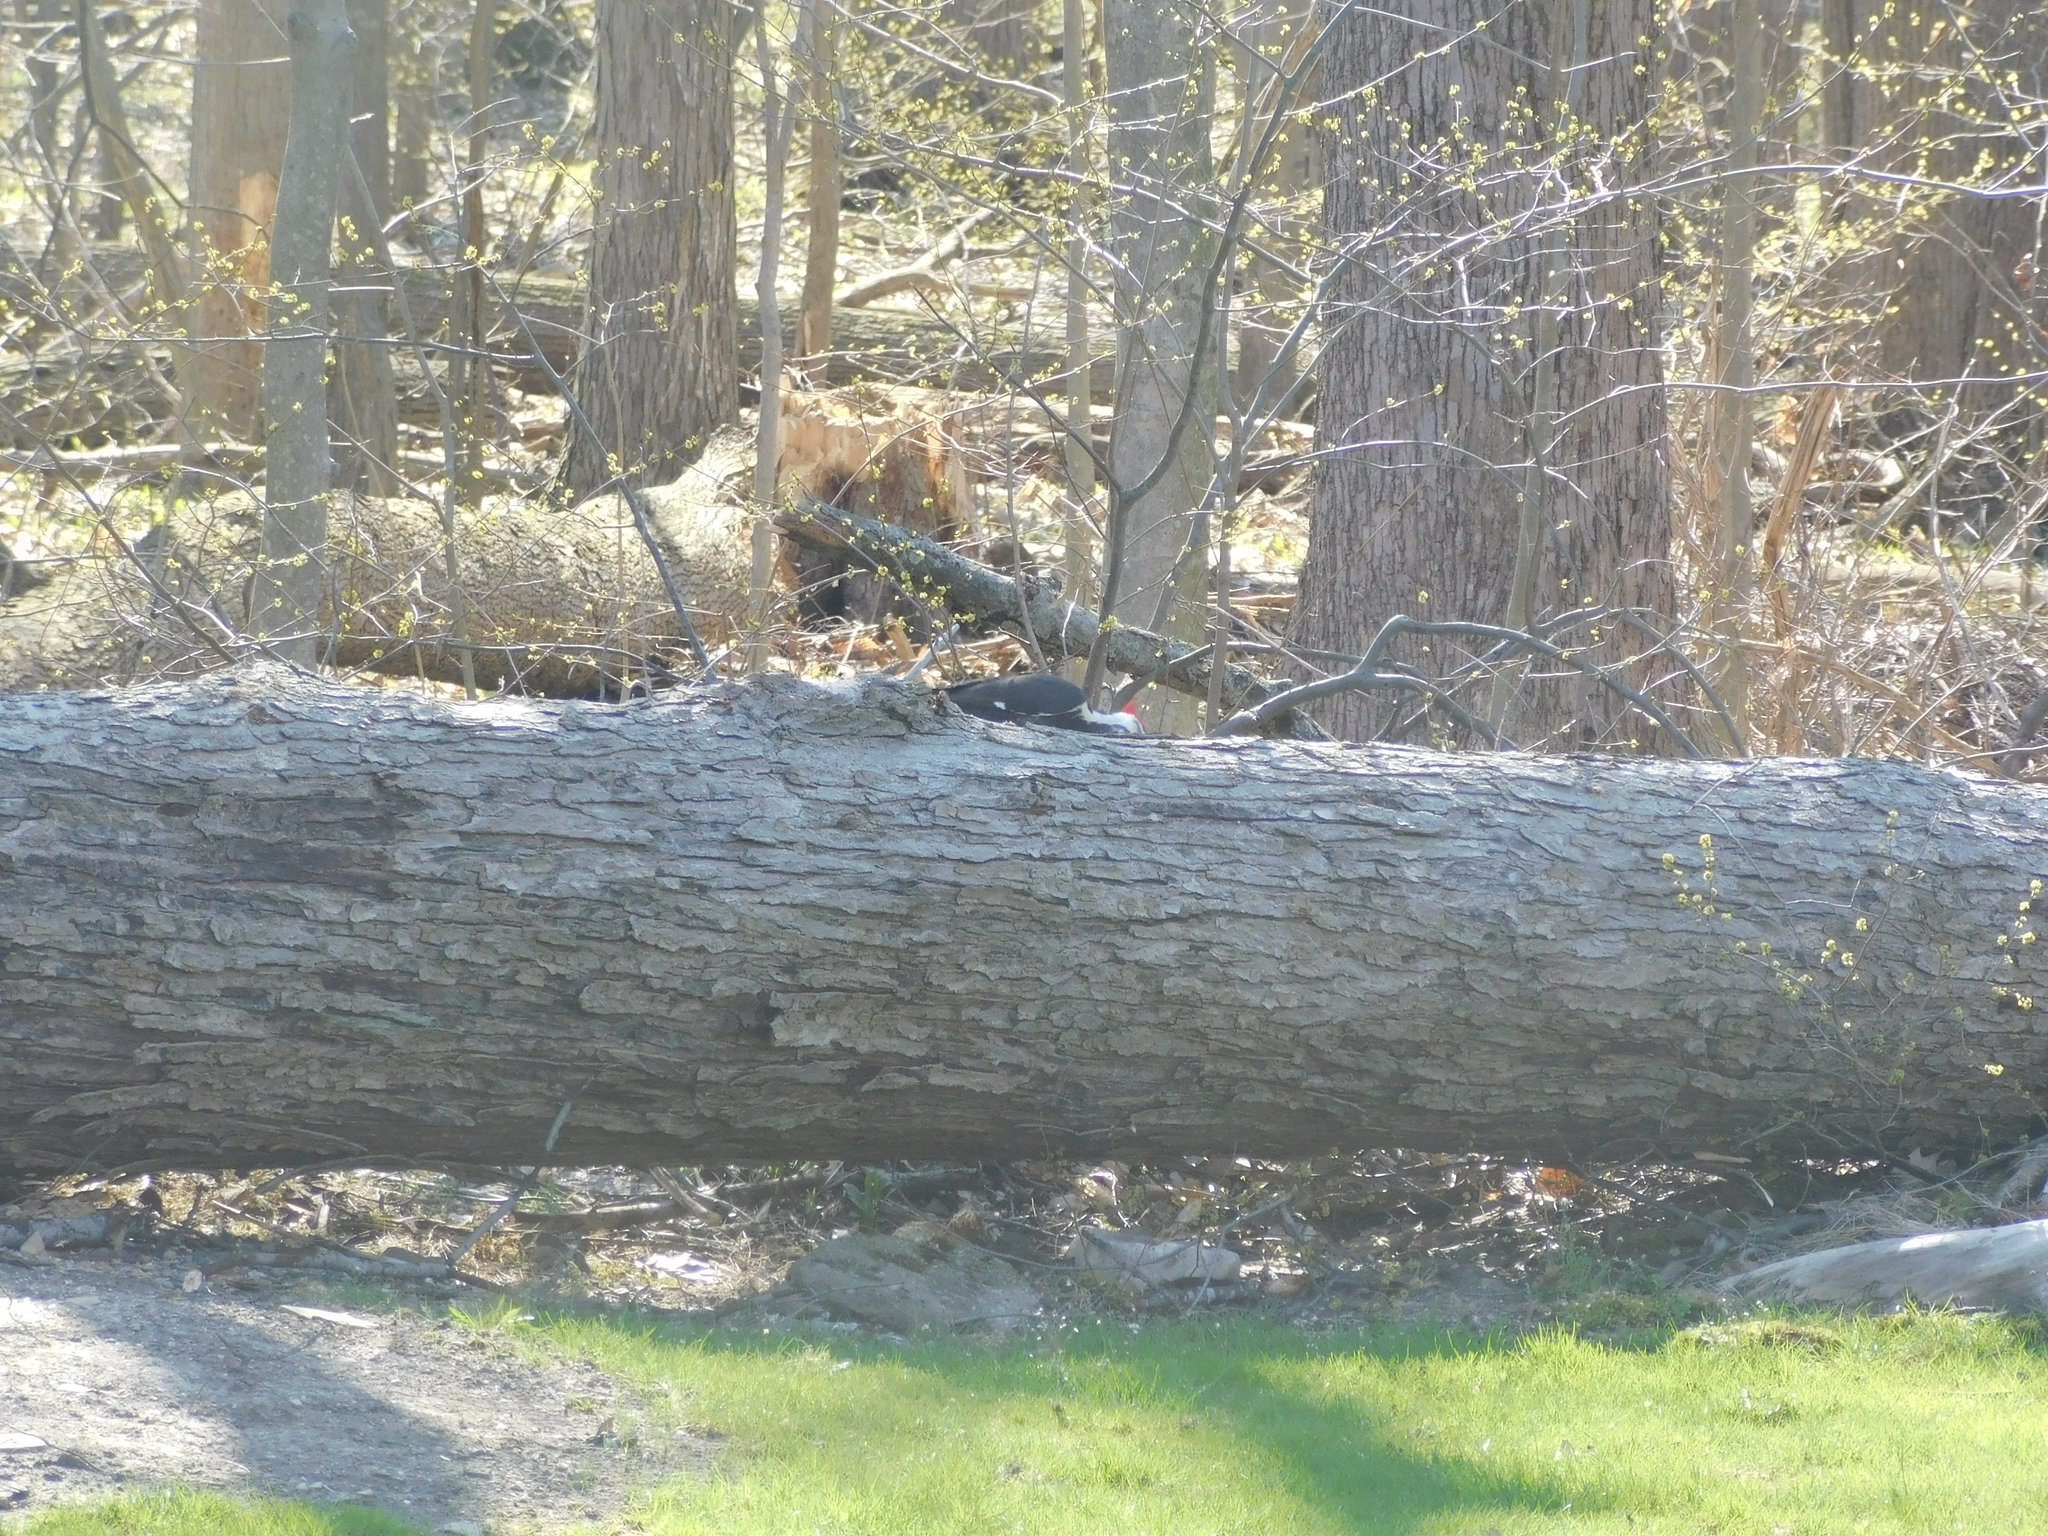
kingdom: Animalia
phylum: Chordata
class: Aves
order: Piciformes
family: Picidae
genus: Dryocopus
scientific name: Dryocopus pileatus
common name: Pileated woodpecker
